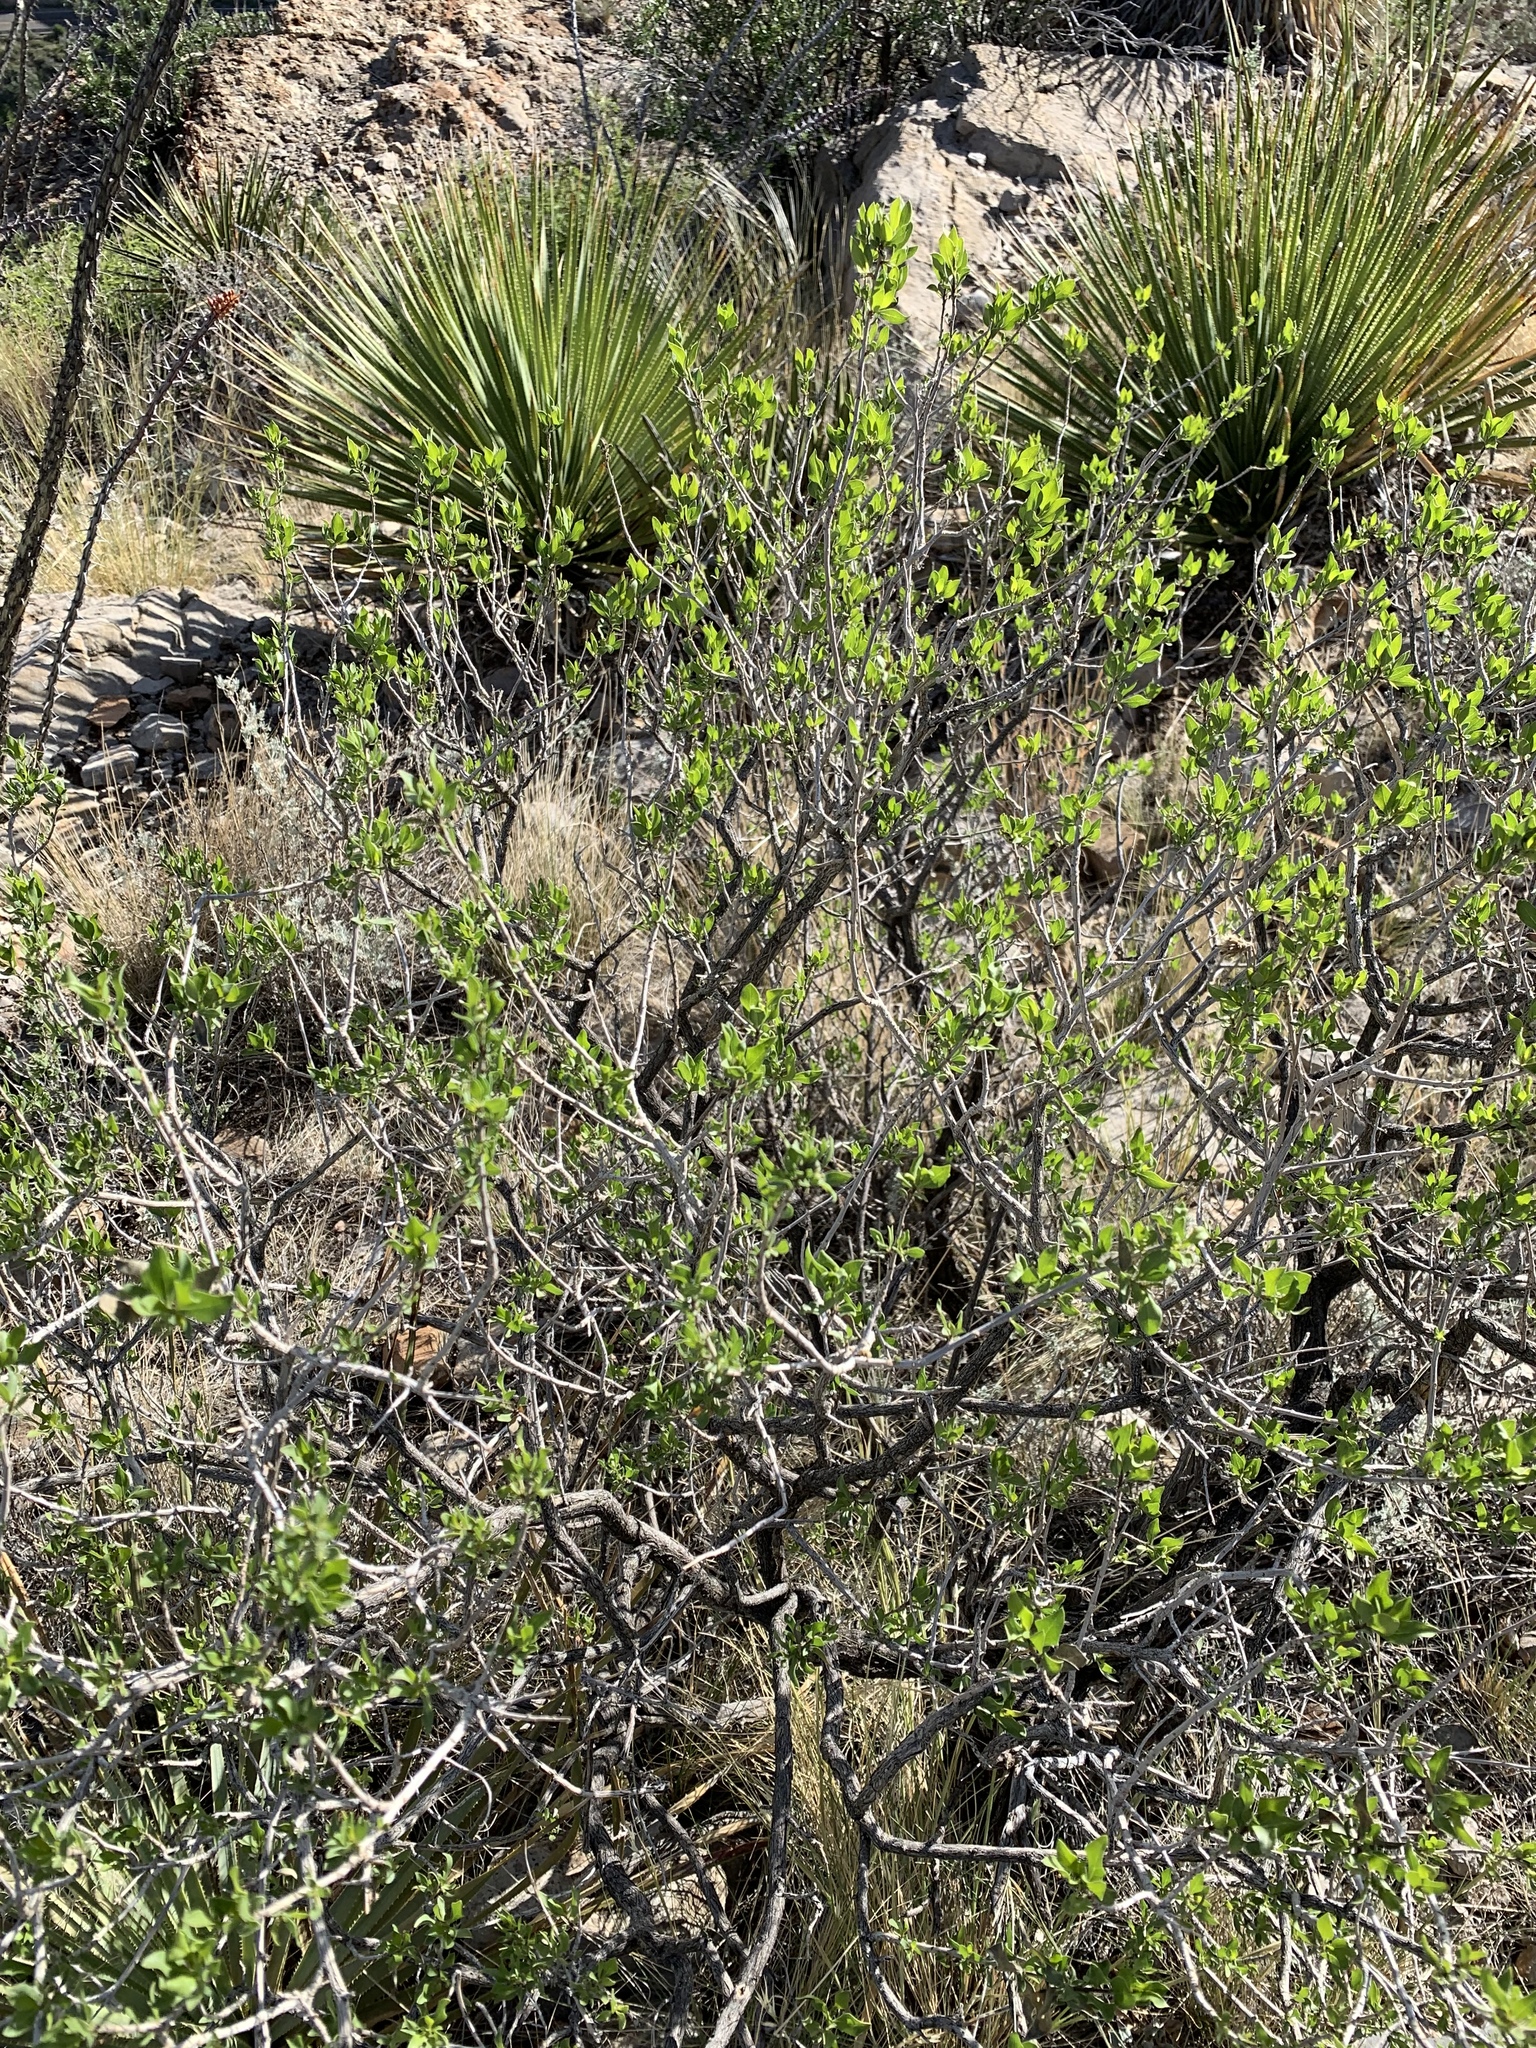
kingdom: Plantae
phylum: Tracheophyta
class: Magnoliopsida
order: Asterales
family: Asteraceae
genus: Flourensia
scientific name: Flourensia cernua
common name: Varnishbush
